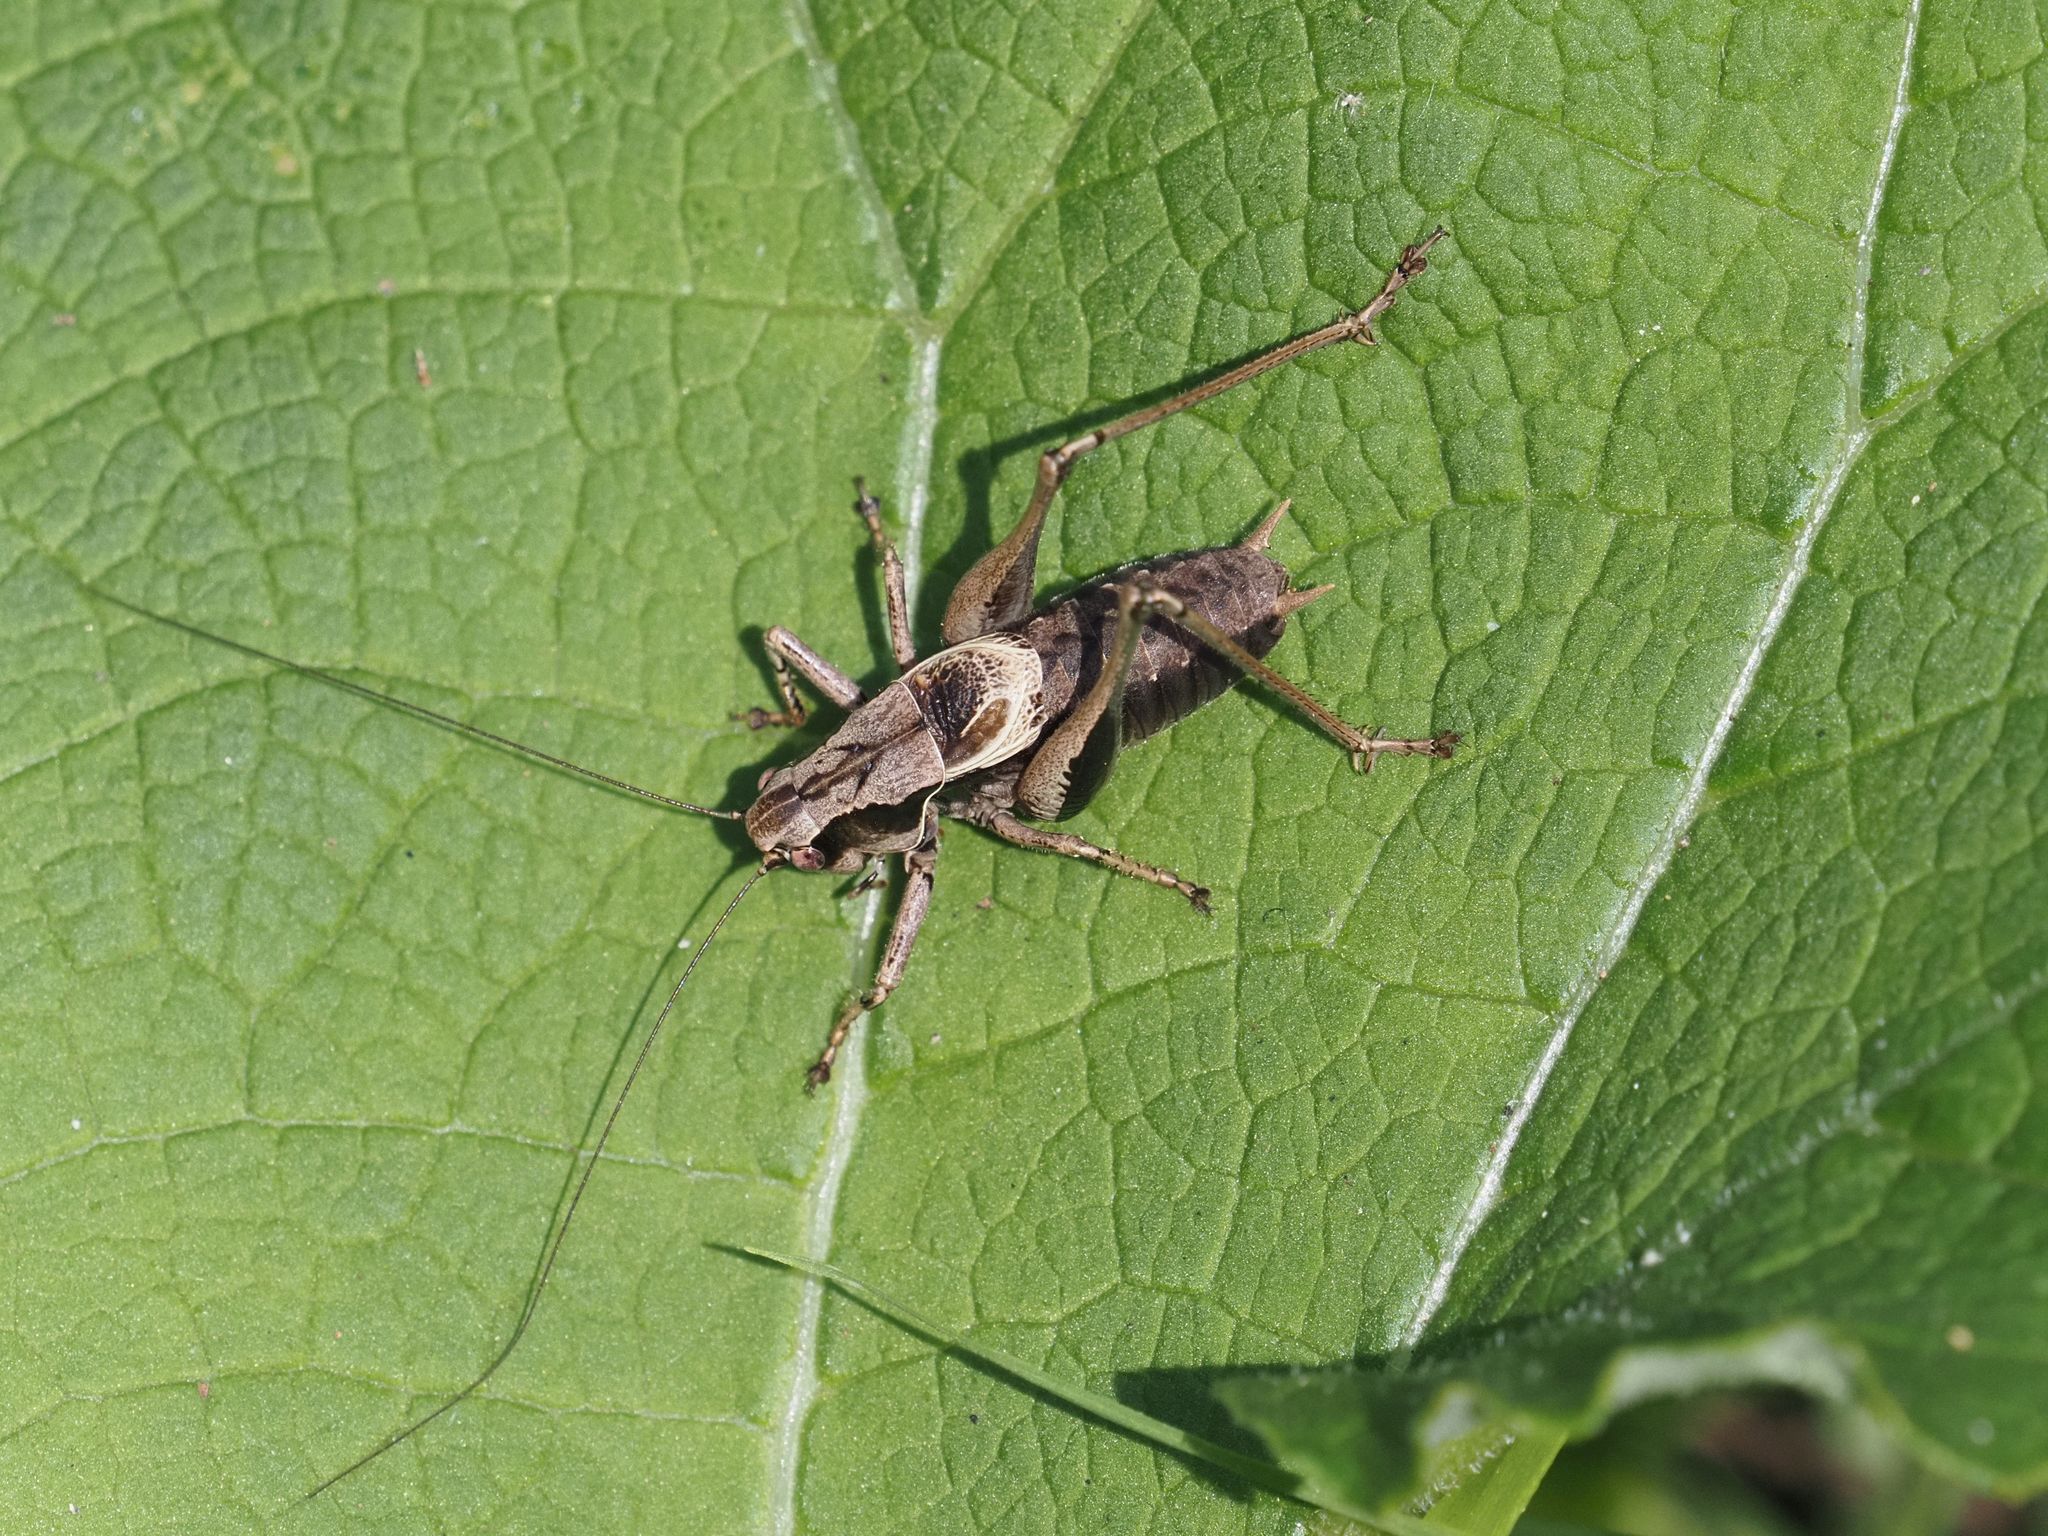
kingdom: Animalia
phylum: Arthropoda
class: Insecta
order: Orthoptera
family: Tettigoniidae
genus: Pholidoptera
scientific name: Pholidoptera griseoaptera
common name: Dark bush-cricket
